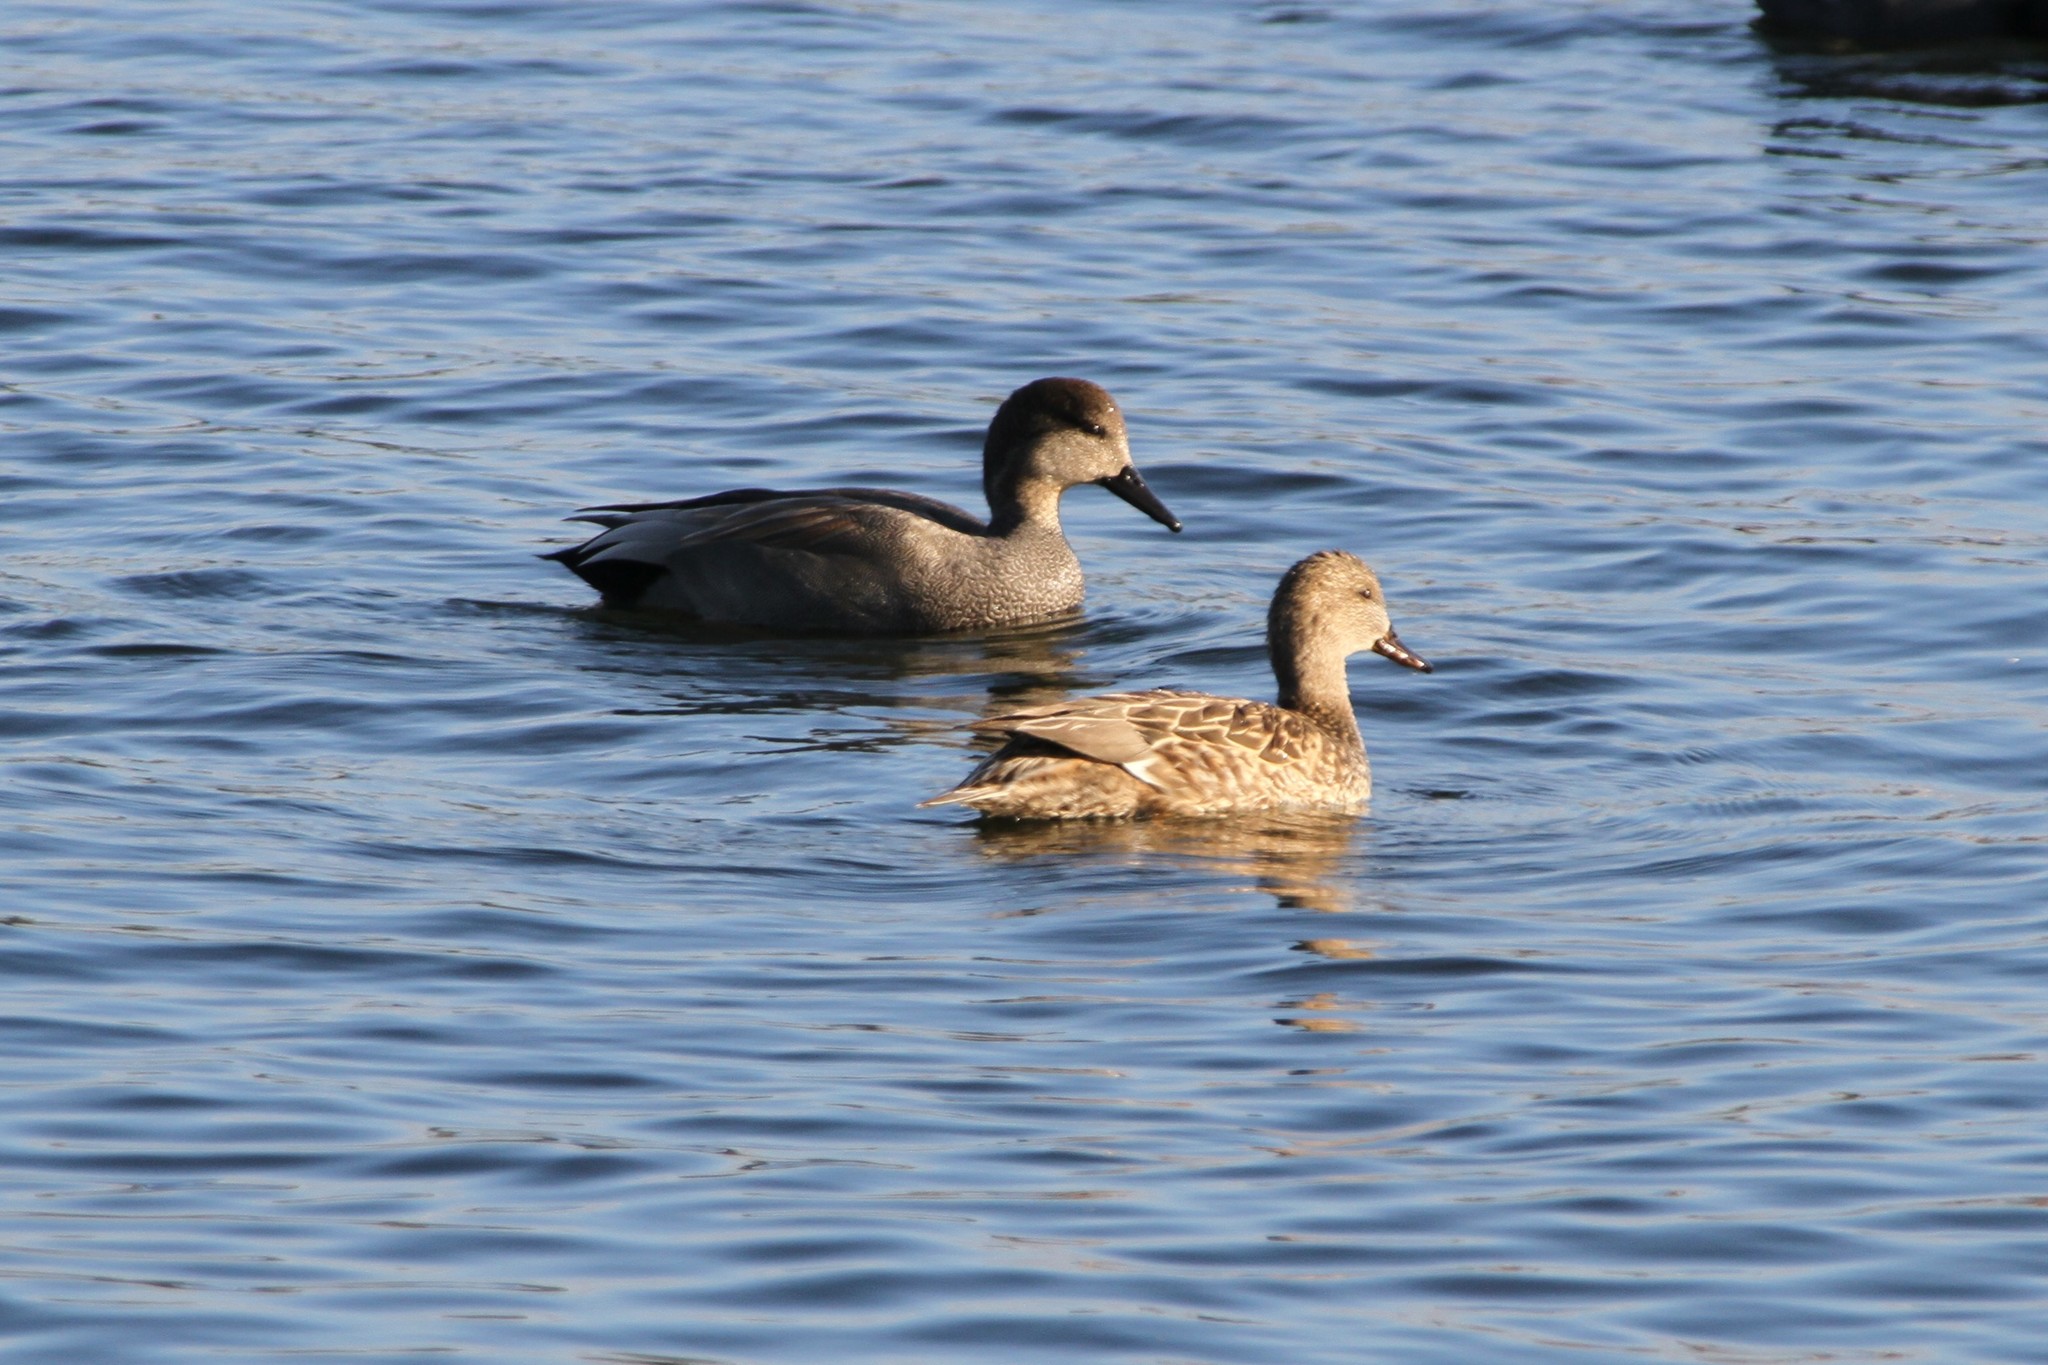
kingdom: Animalia
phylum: Chordata
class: Aves
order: Anseriformes
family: Anatidae
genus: Mareca
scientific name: Mareca strepera
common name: Gadwall
